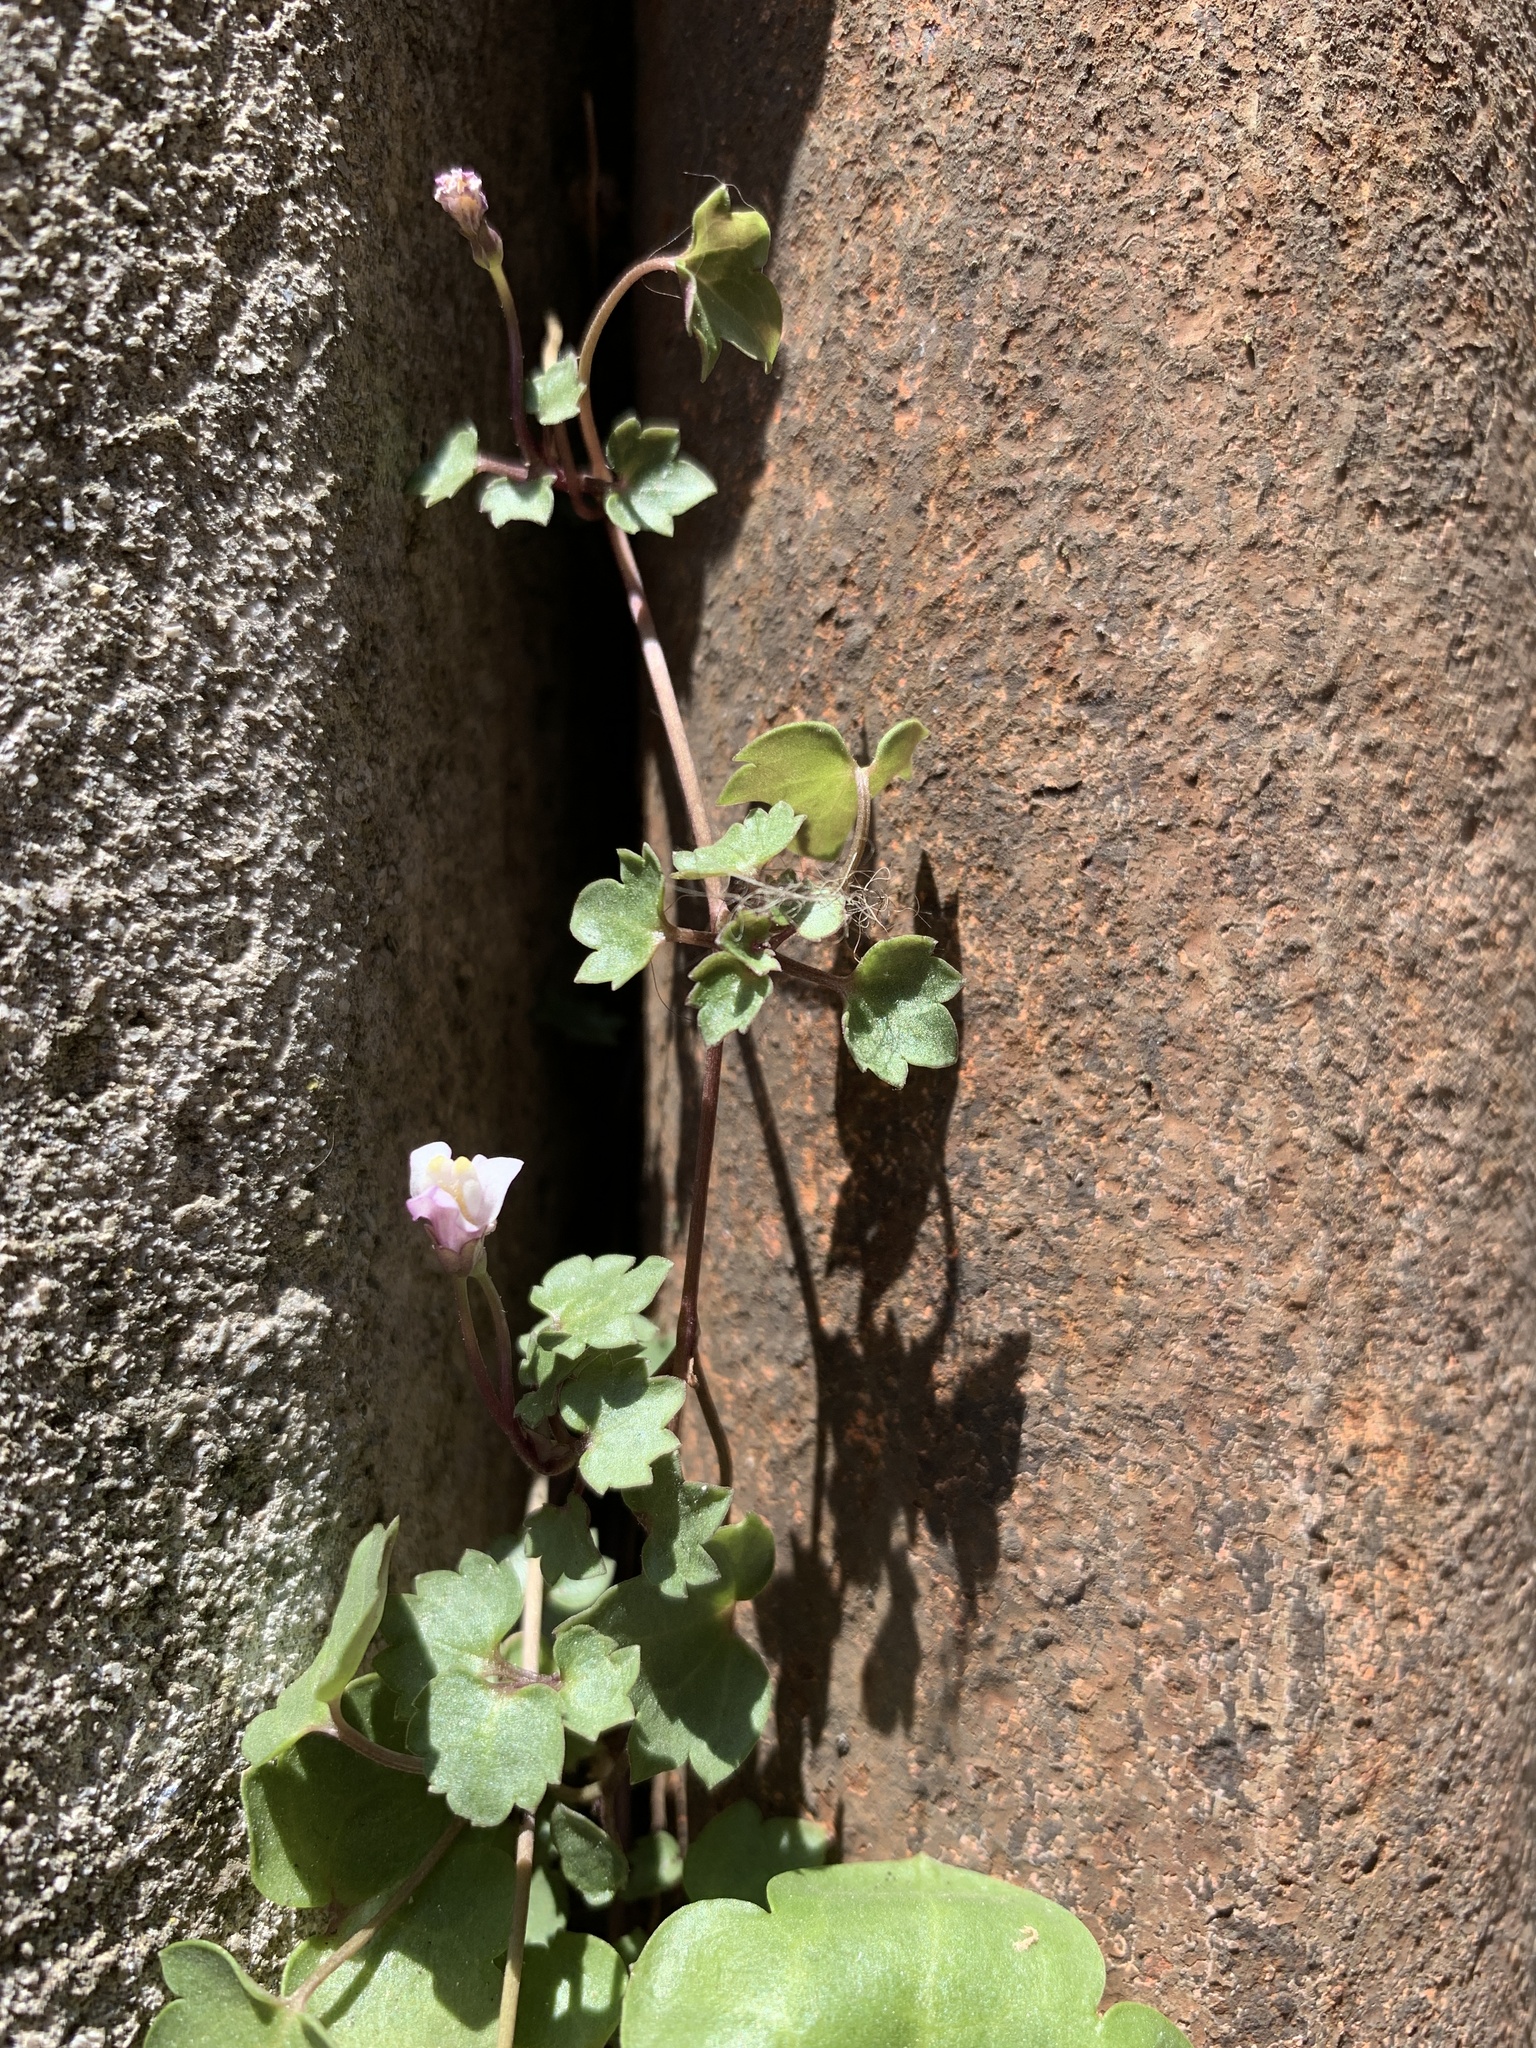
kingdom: Plantae
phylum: Tracheophyta
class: Magnoliopsida
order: Lamiales
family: Plantaginaceae
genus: Cymbalaria
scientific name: Cymbalaria muralis
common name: Ivy-leaved toadflax
